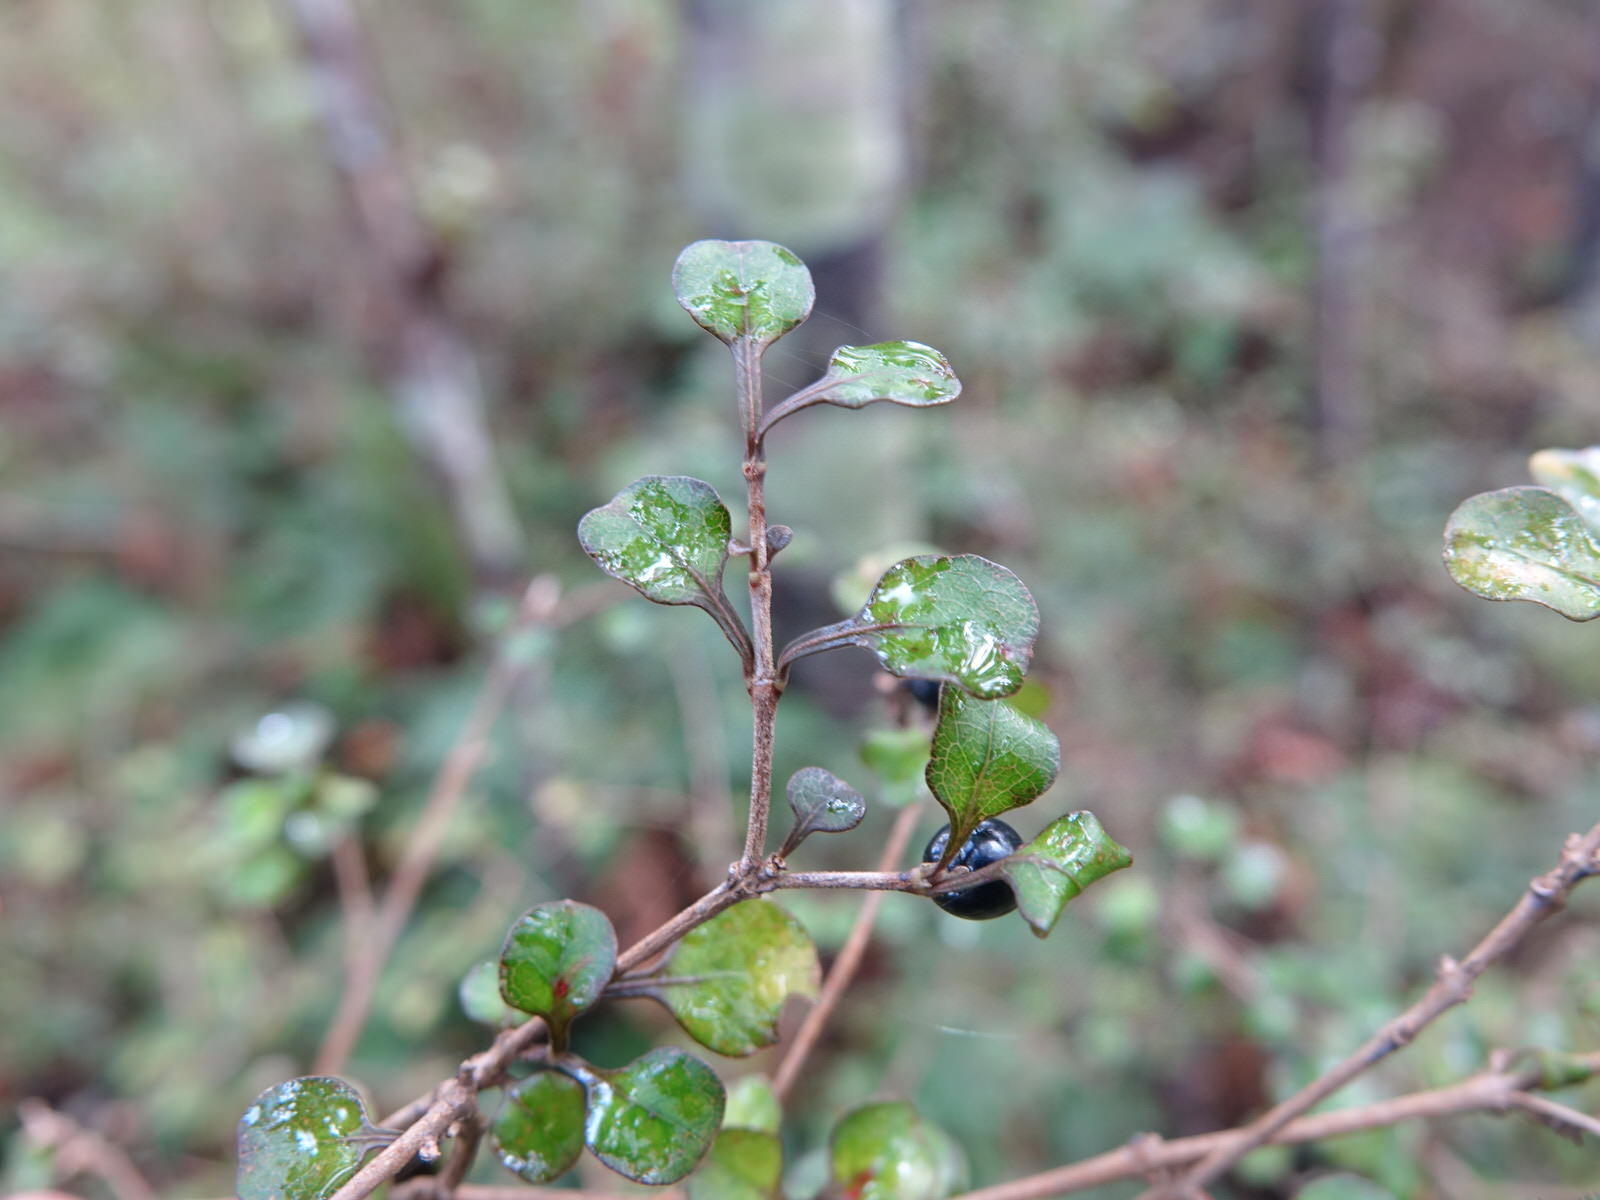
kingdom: Plantae
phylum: Tracheophyta
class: Magnoliopsida
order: Gentianales
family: Rubiaceae
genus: Coprosma
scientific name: Coprosma spathulata
